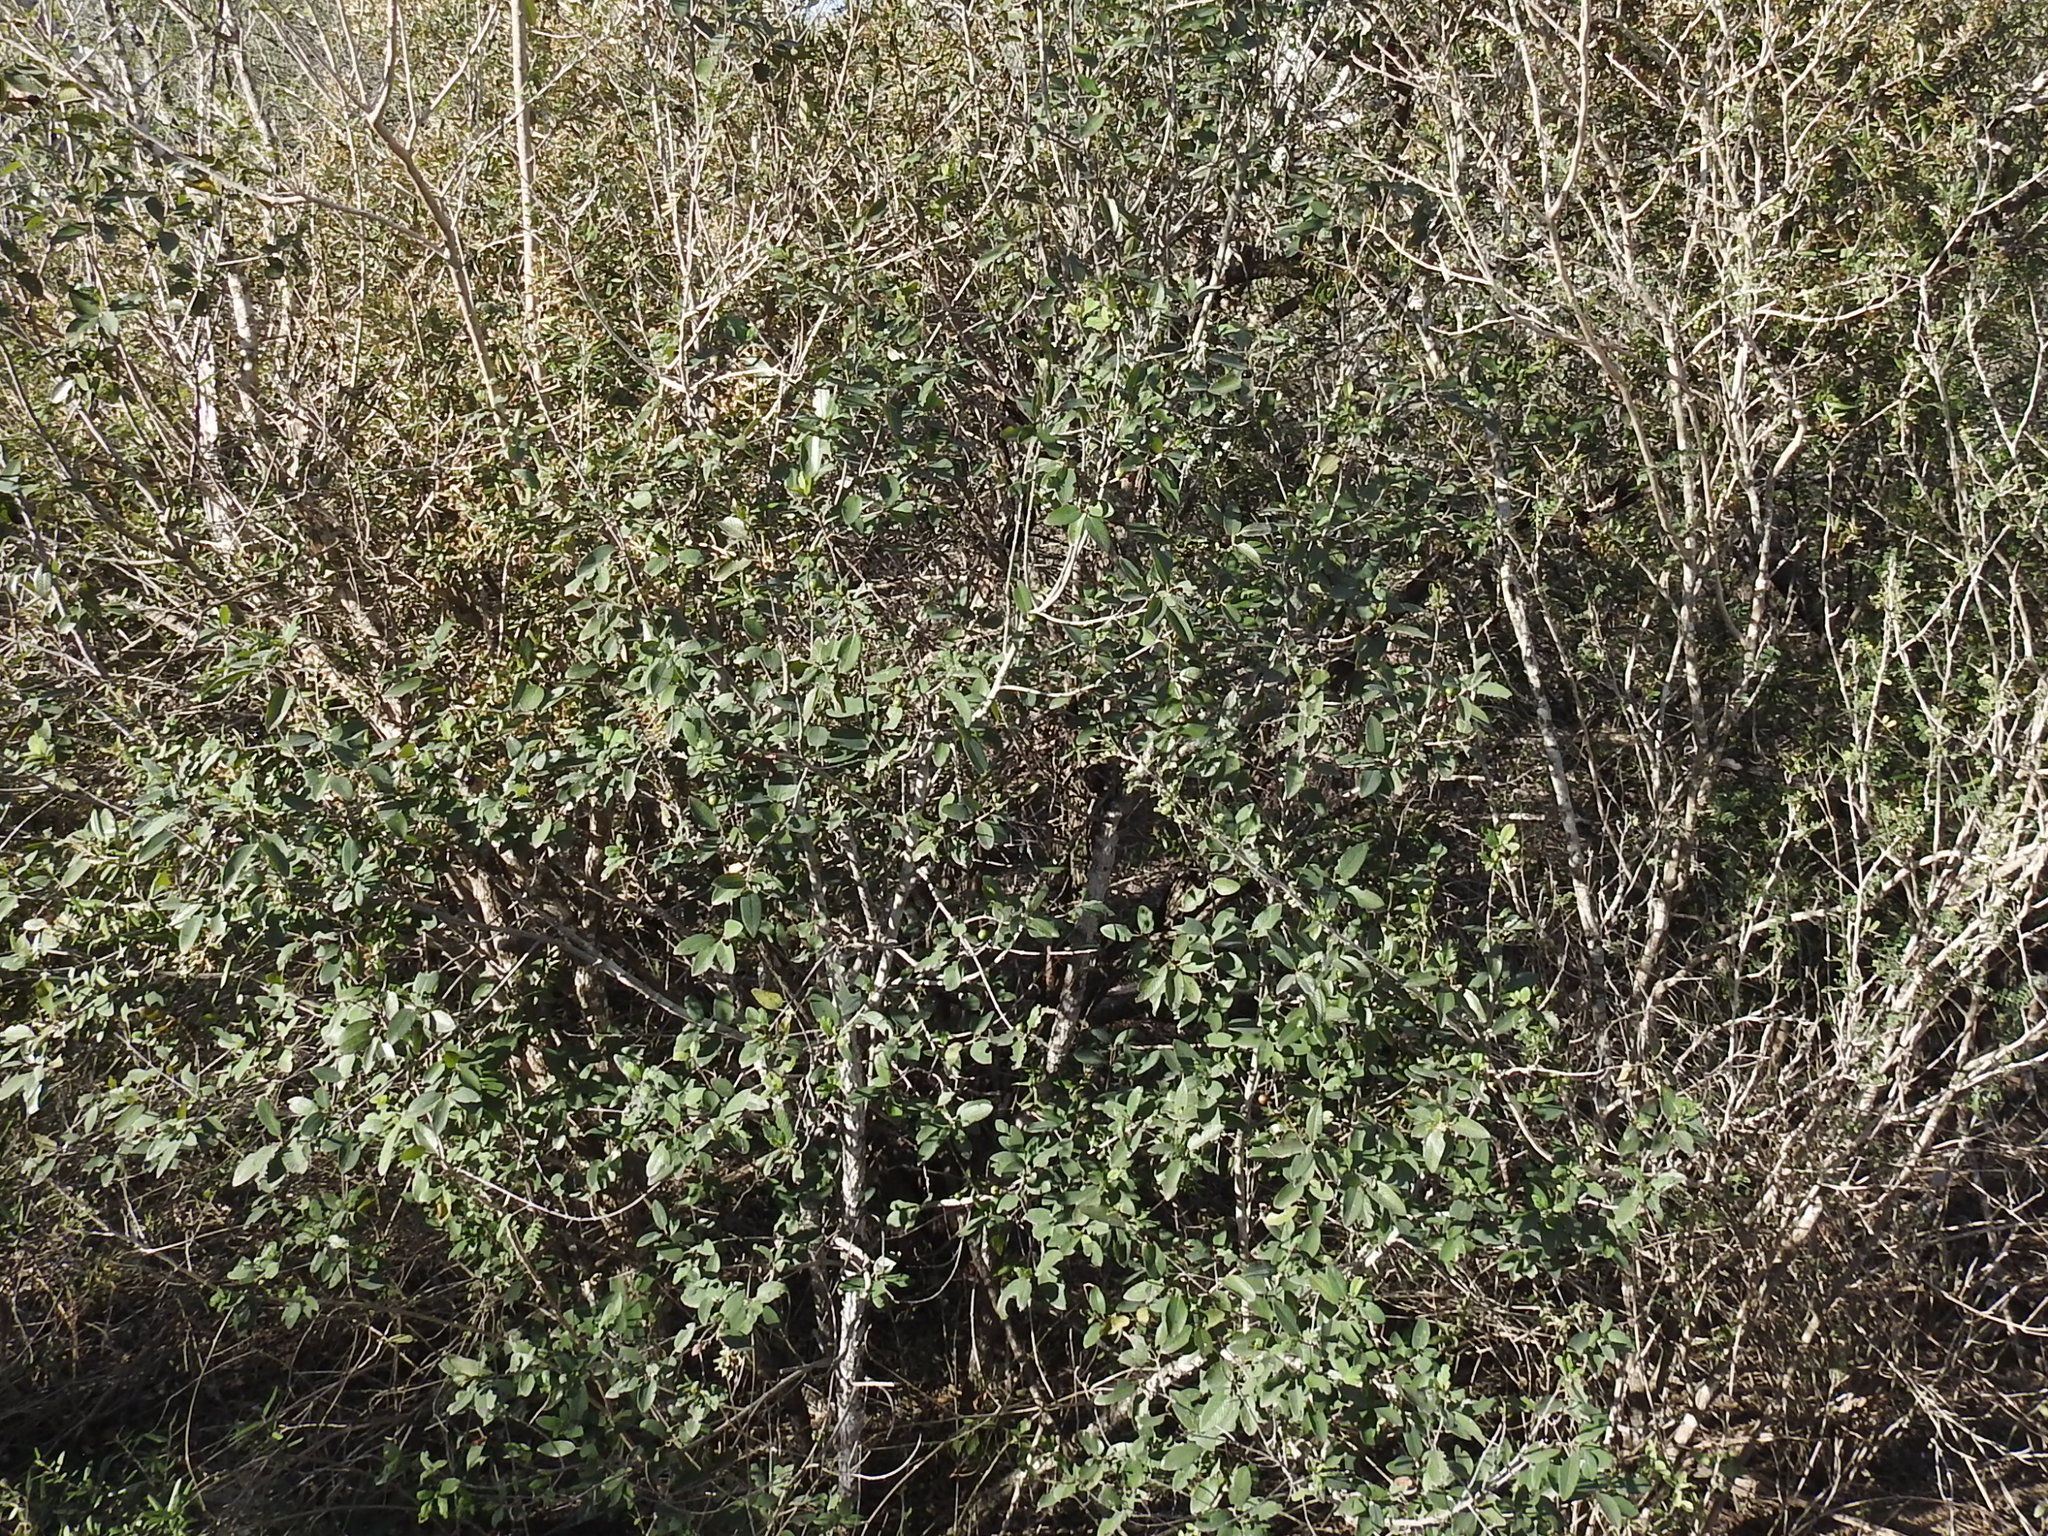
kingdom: Plantae
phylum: Tracheophyta
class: Magnoliopsida
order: Rosales
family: Rhamnaceae
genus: Karwinskia
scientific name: Karwinskia humboldtiana
